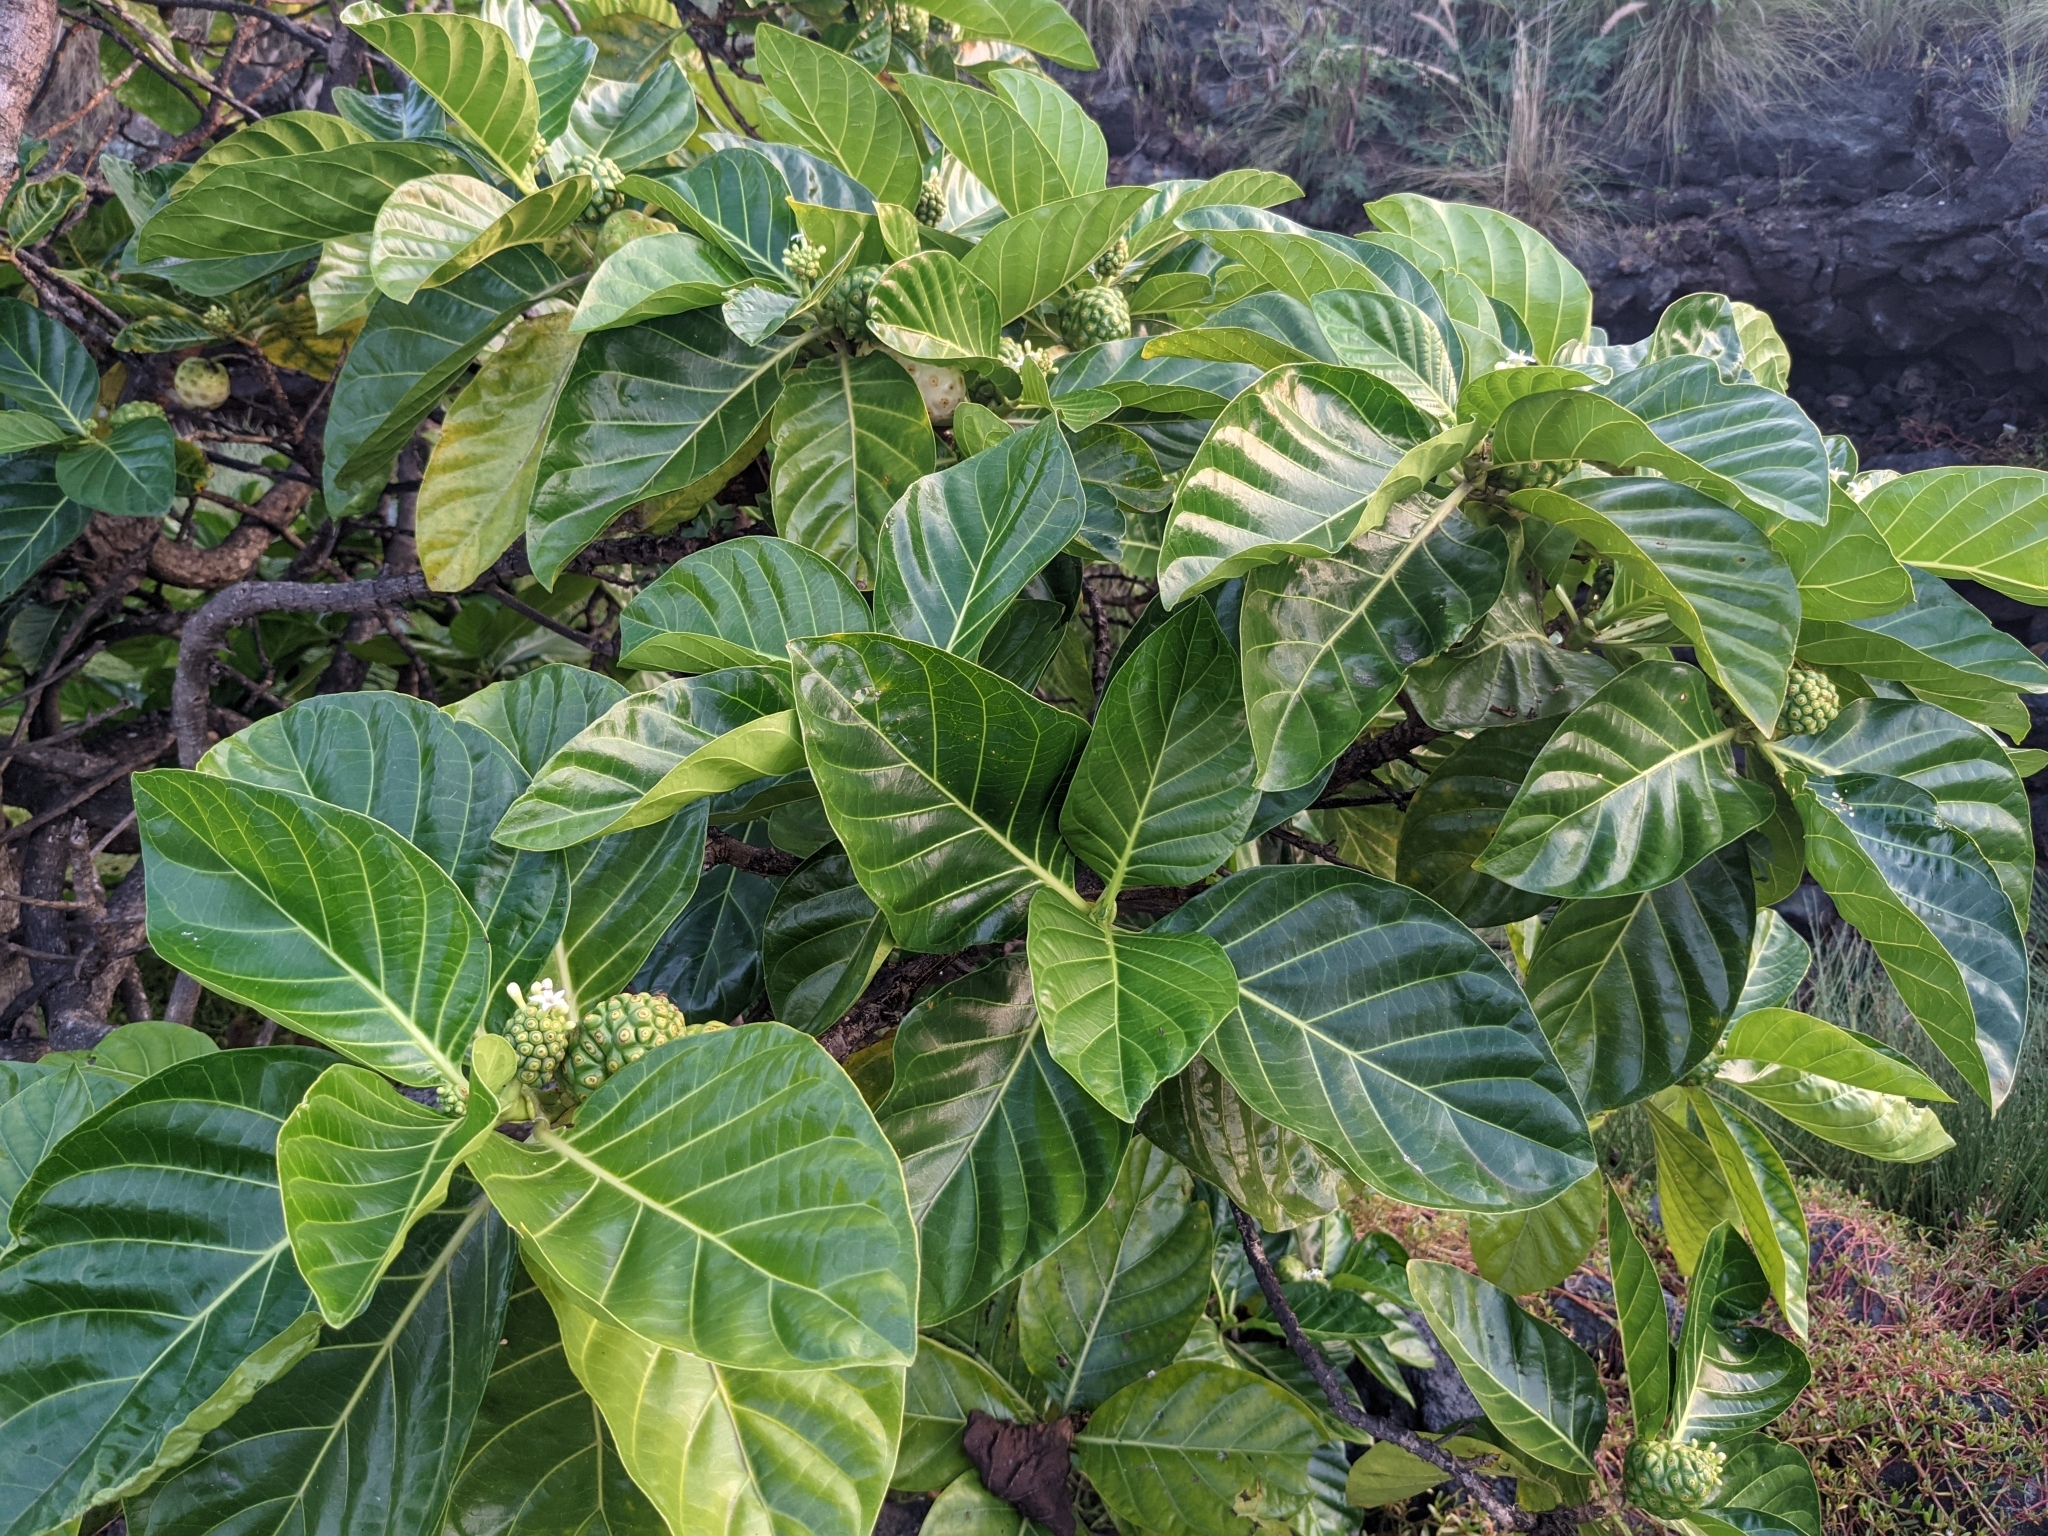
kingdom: Plantae
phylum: Tracheophyta
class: Magnoliopsida
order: Gentianales
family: Rubiaceae
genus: Morinda
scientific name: Morinda citrifolia
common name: Indian-mulberry
